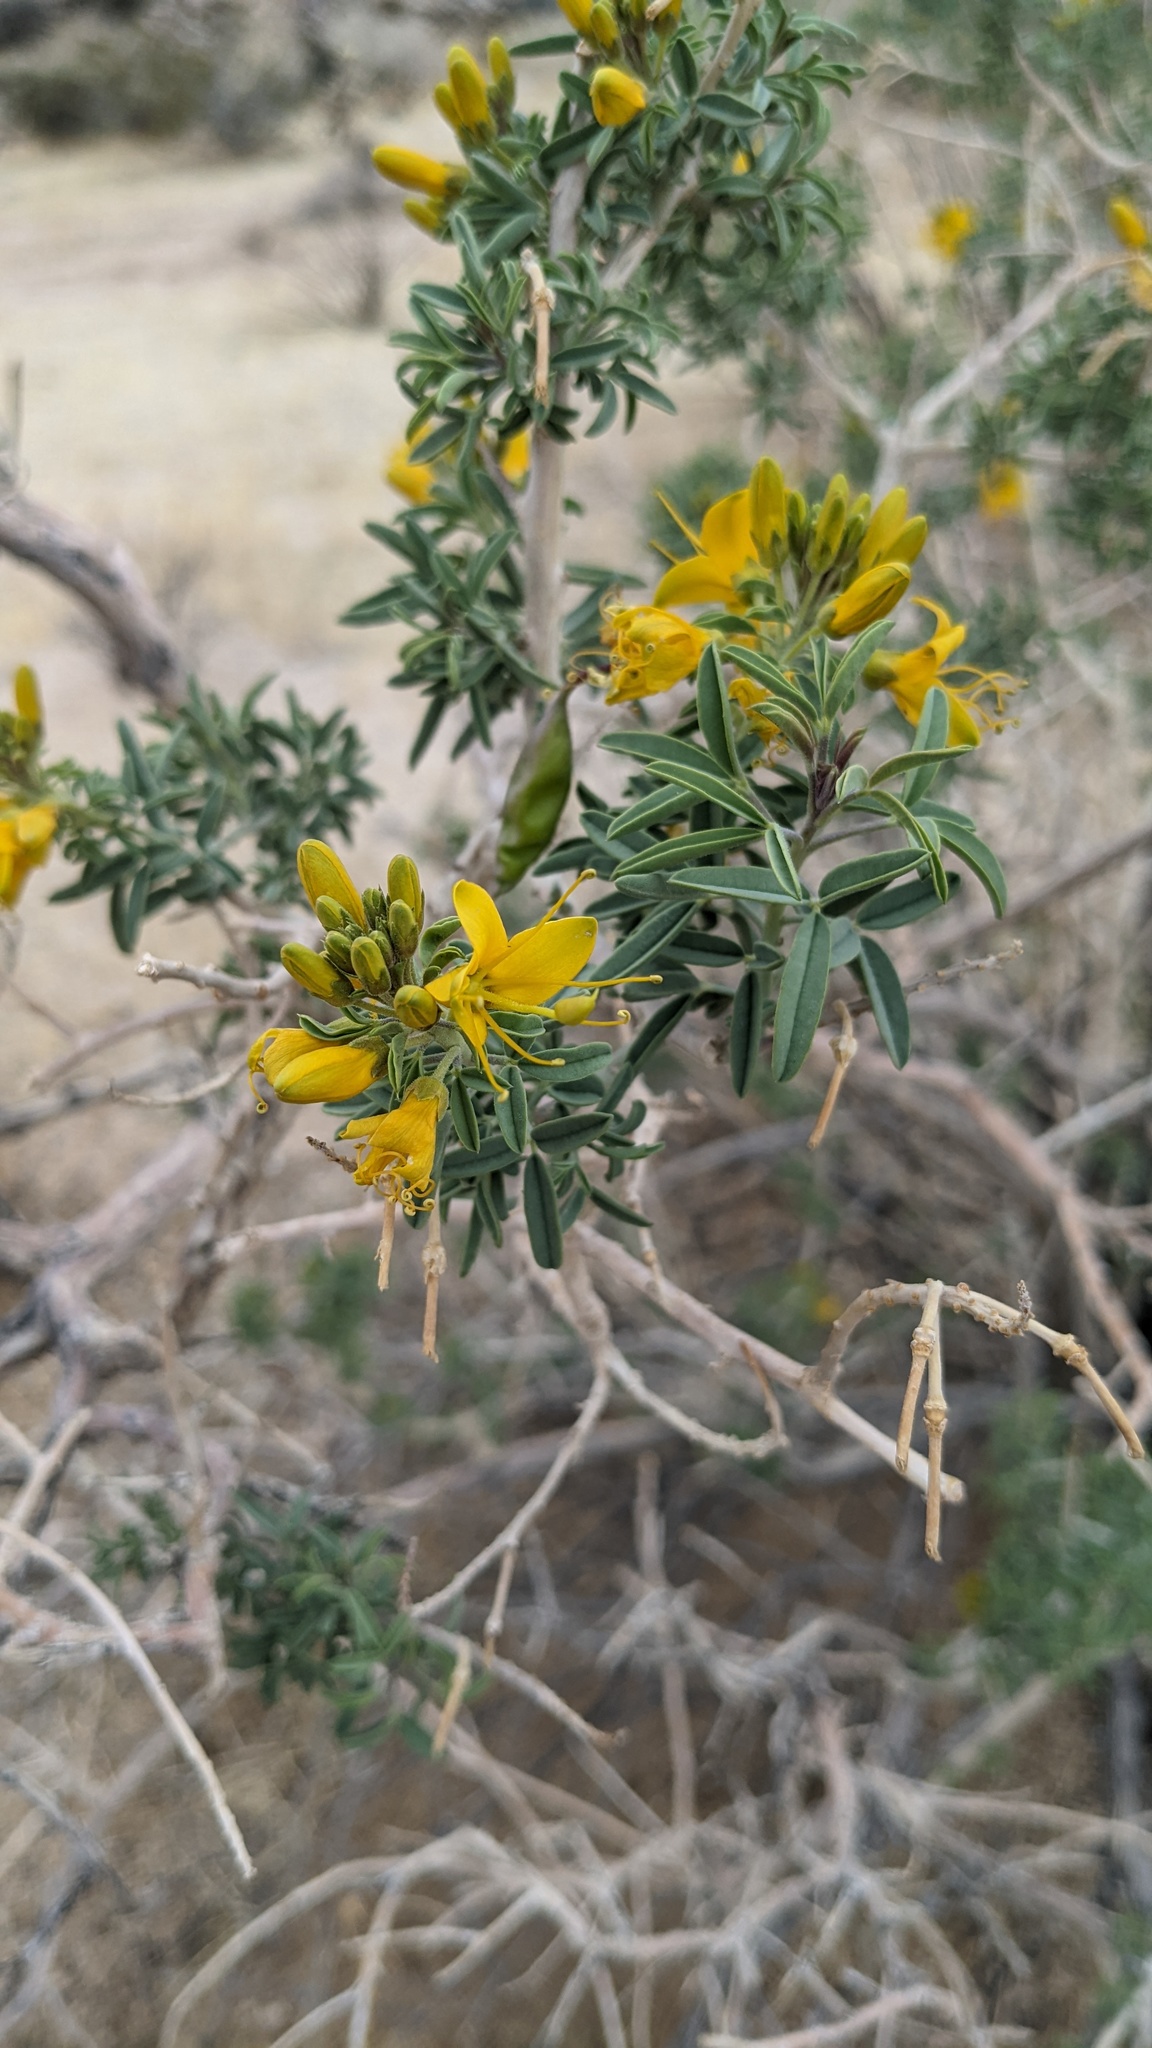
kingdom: Plantae
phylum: Tracheophyta
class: Magnoliopsida
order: Brassicales
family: Cleomaceae
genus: Cleomella
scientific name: Cleomella arborea
